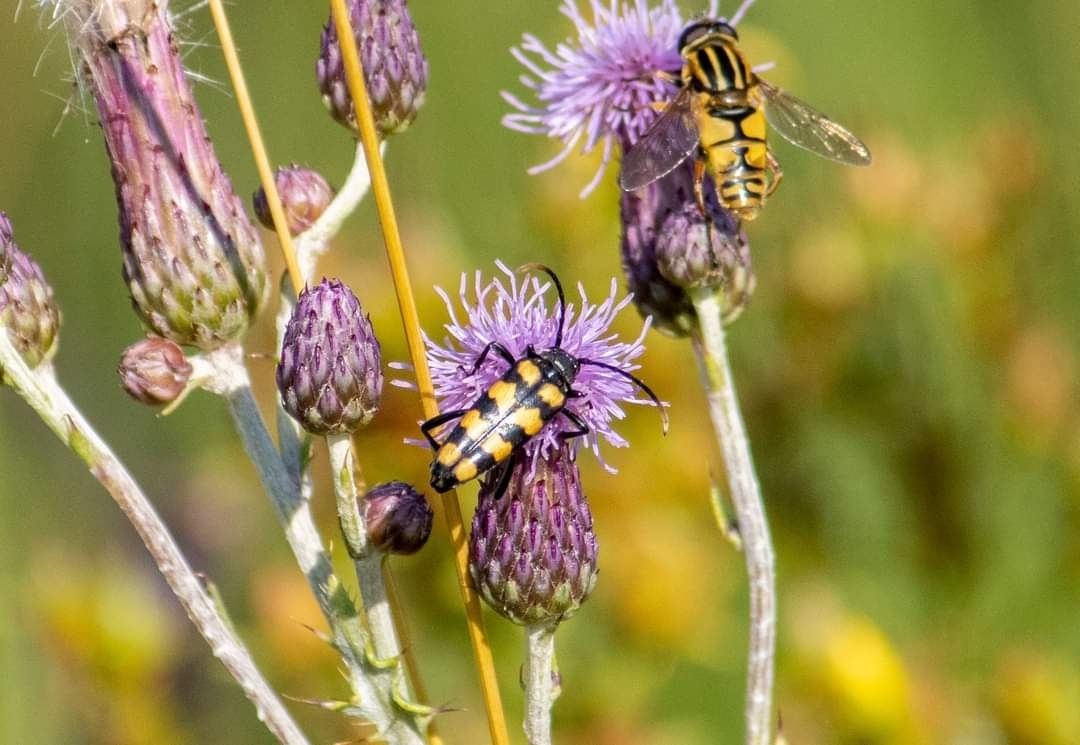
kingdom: Animalia
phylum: Arthropoda
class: Insecta
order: Coleoptera
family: Cerambycidae
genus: Leptura
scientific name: Leptura quadrifasciata
